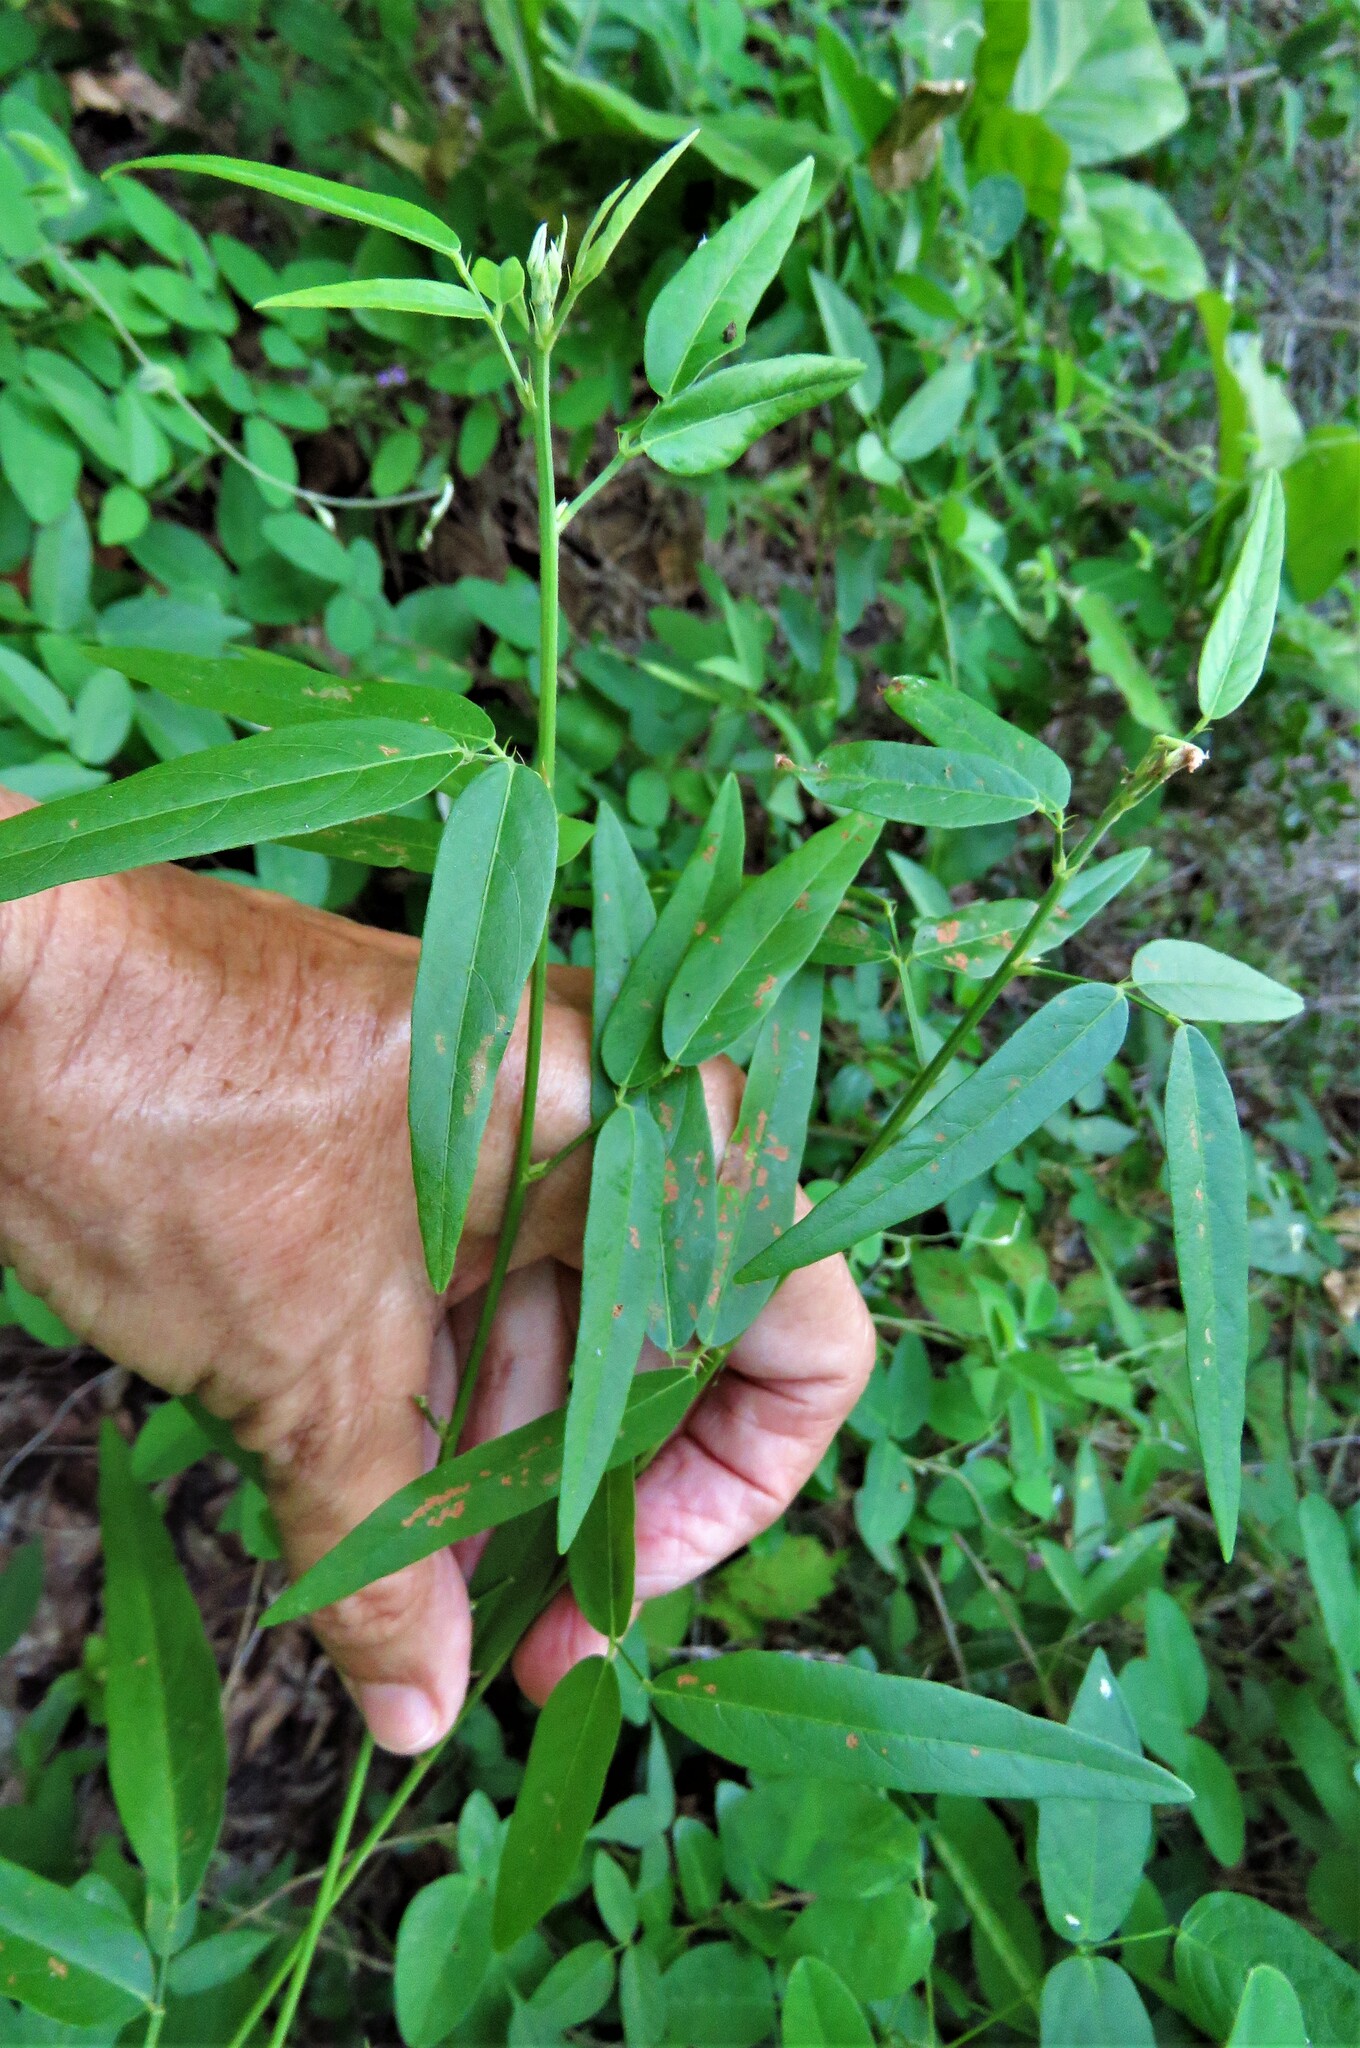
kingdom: Plantae
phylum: Tracheophyta
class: Magnoliopsida
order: Fabales
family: Fabaceae
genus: Orbexilum
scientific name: Orbexilum pedunculatum
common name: Sampson's snakeroot
